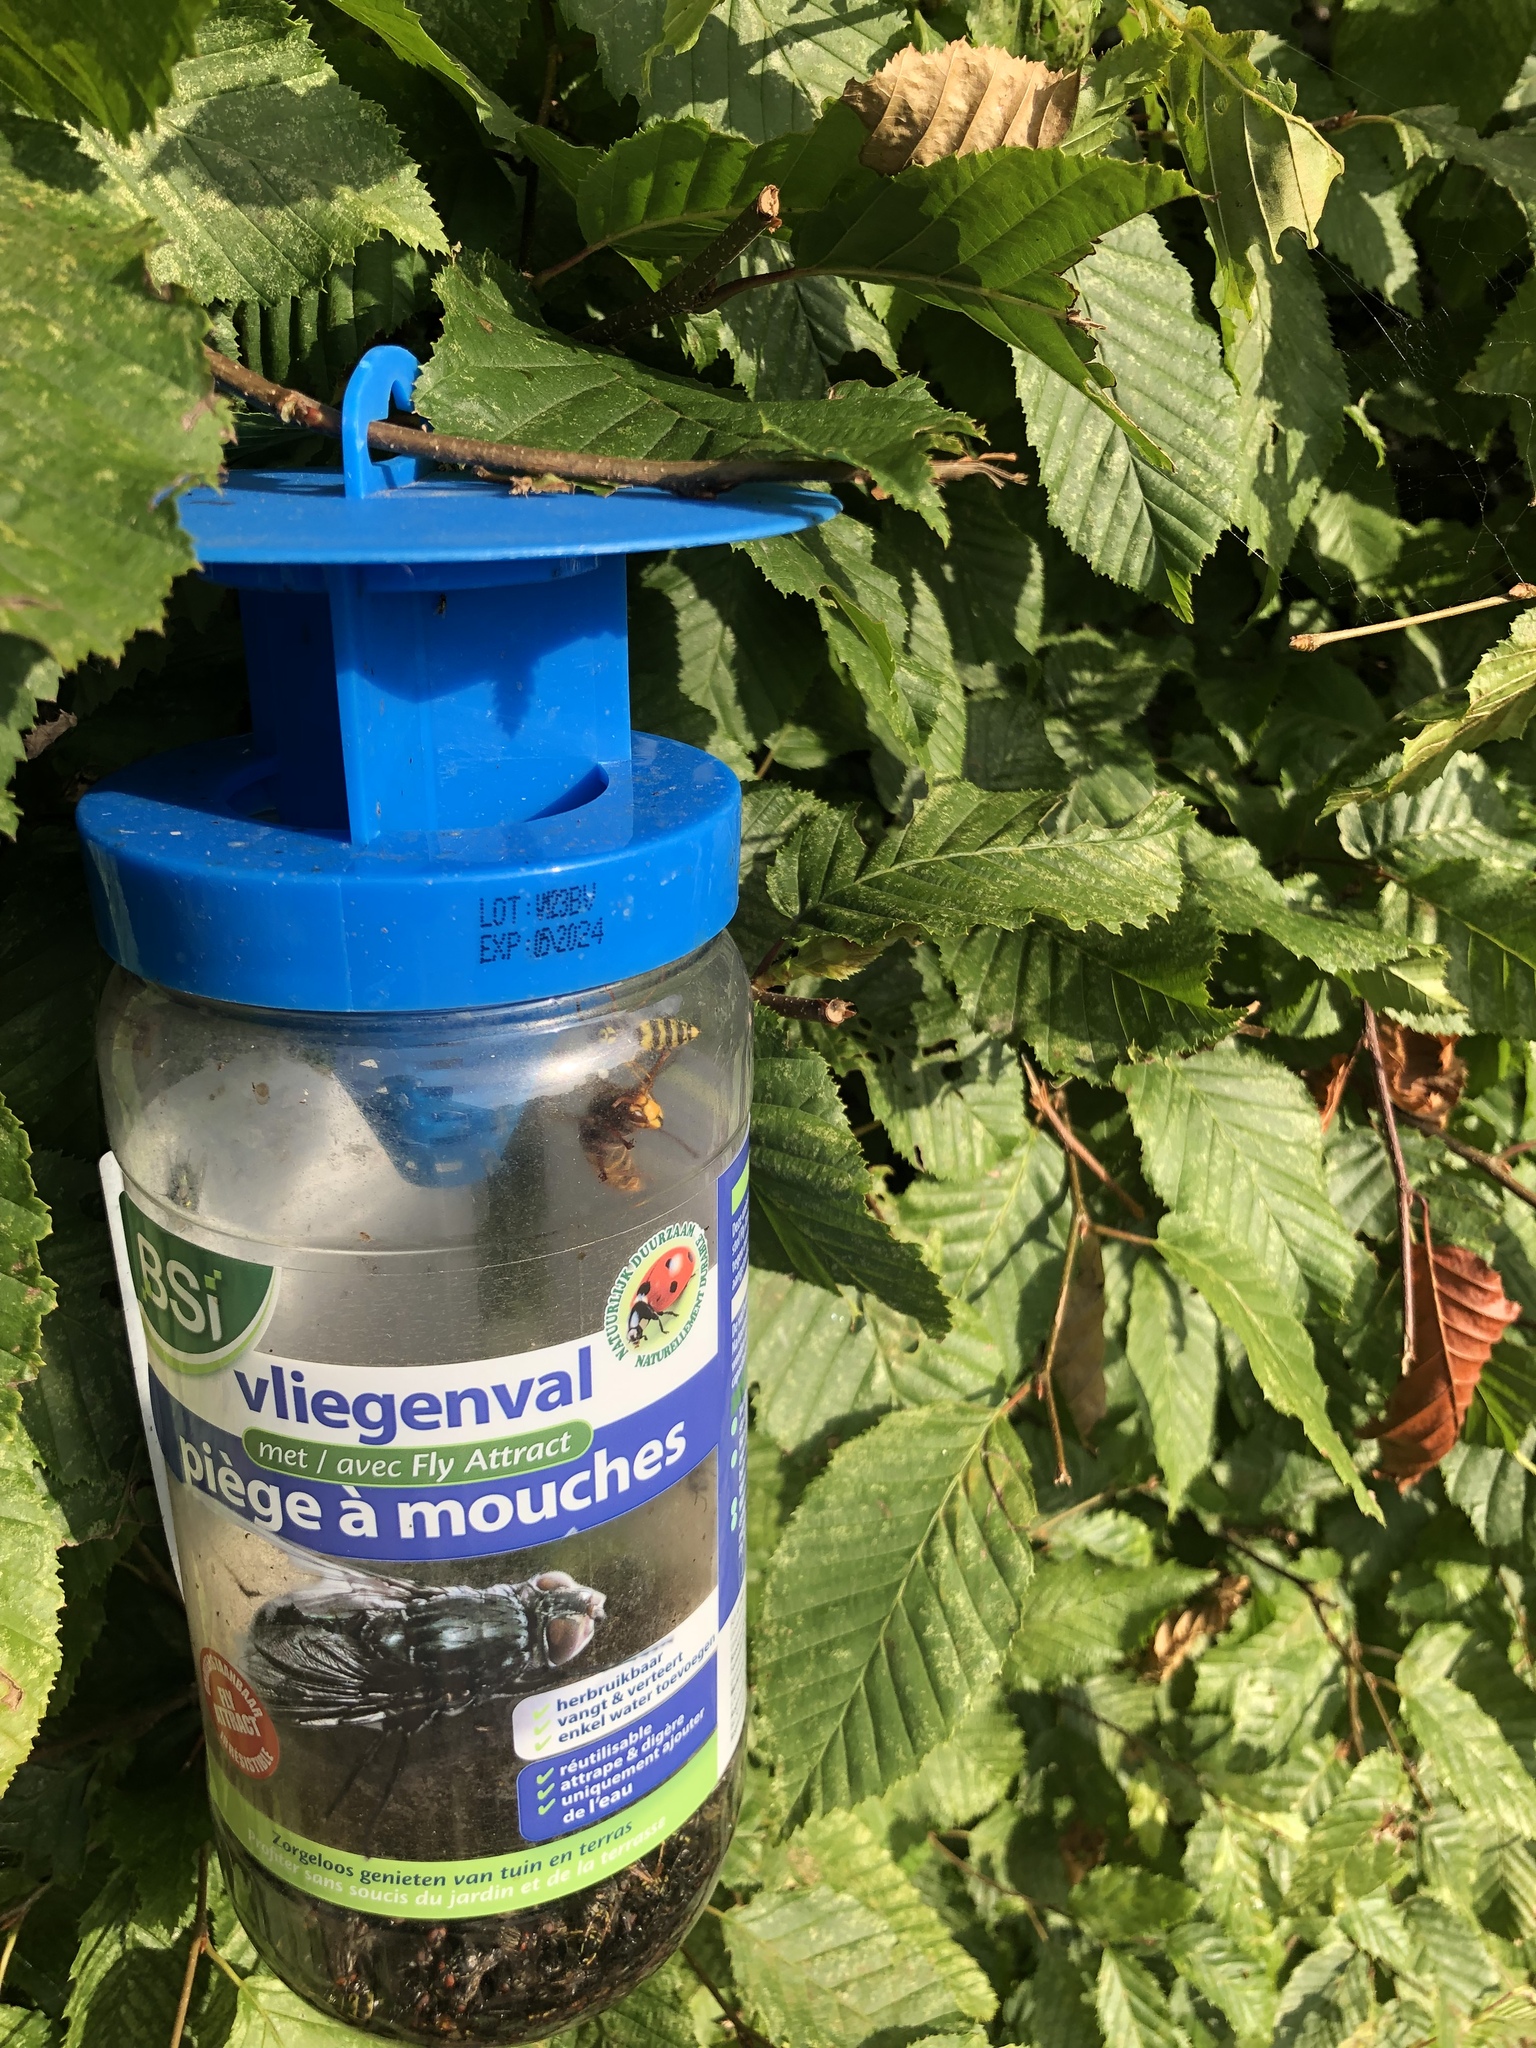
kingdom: Animalia
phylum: Arthropoda
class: Insecta
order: Hymenoptera
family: Vespidae
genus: Vespa
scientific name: Vespa crabro
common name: Hornet
